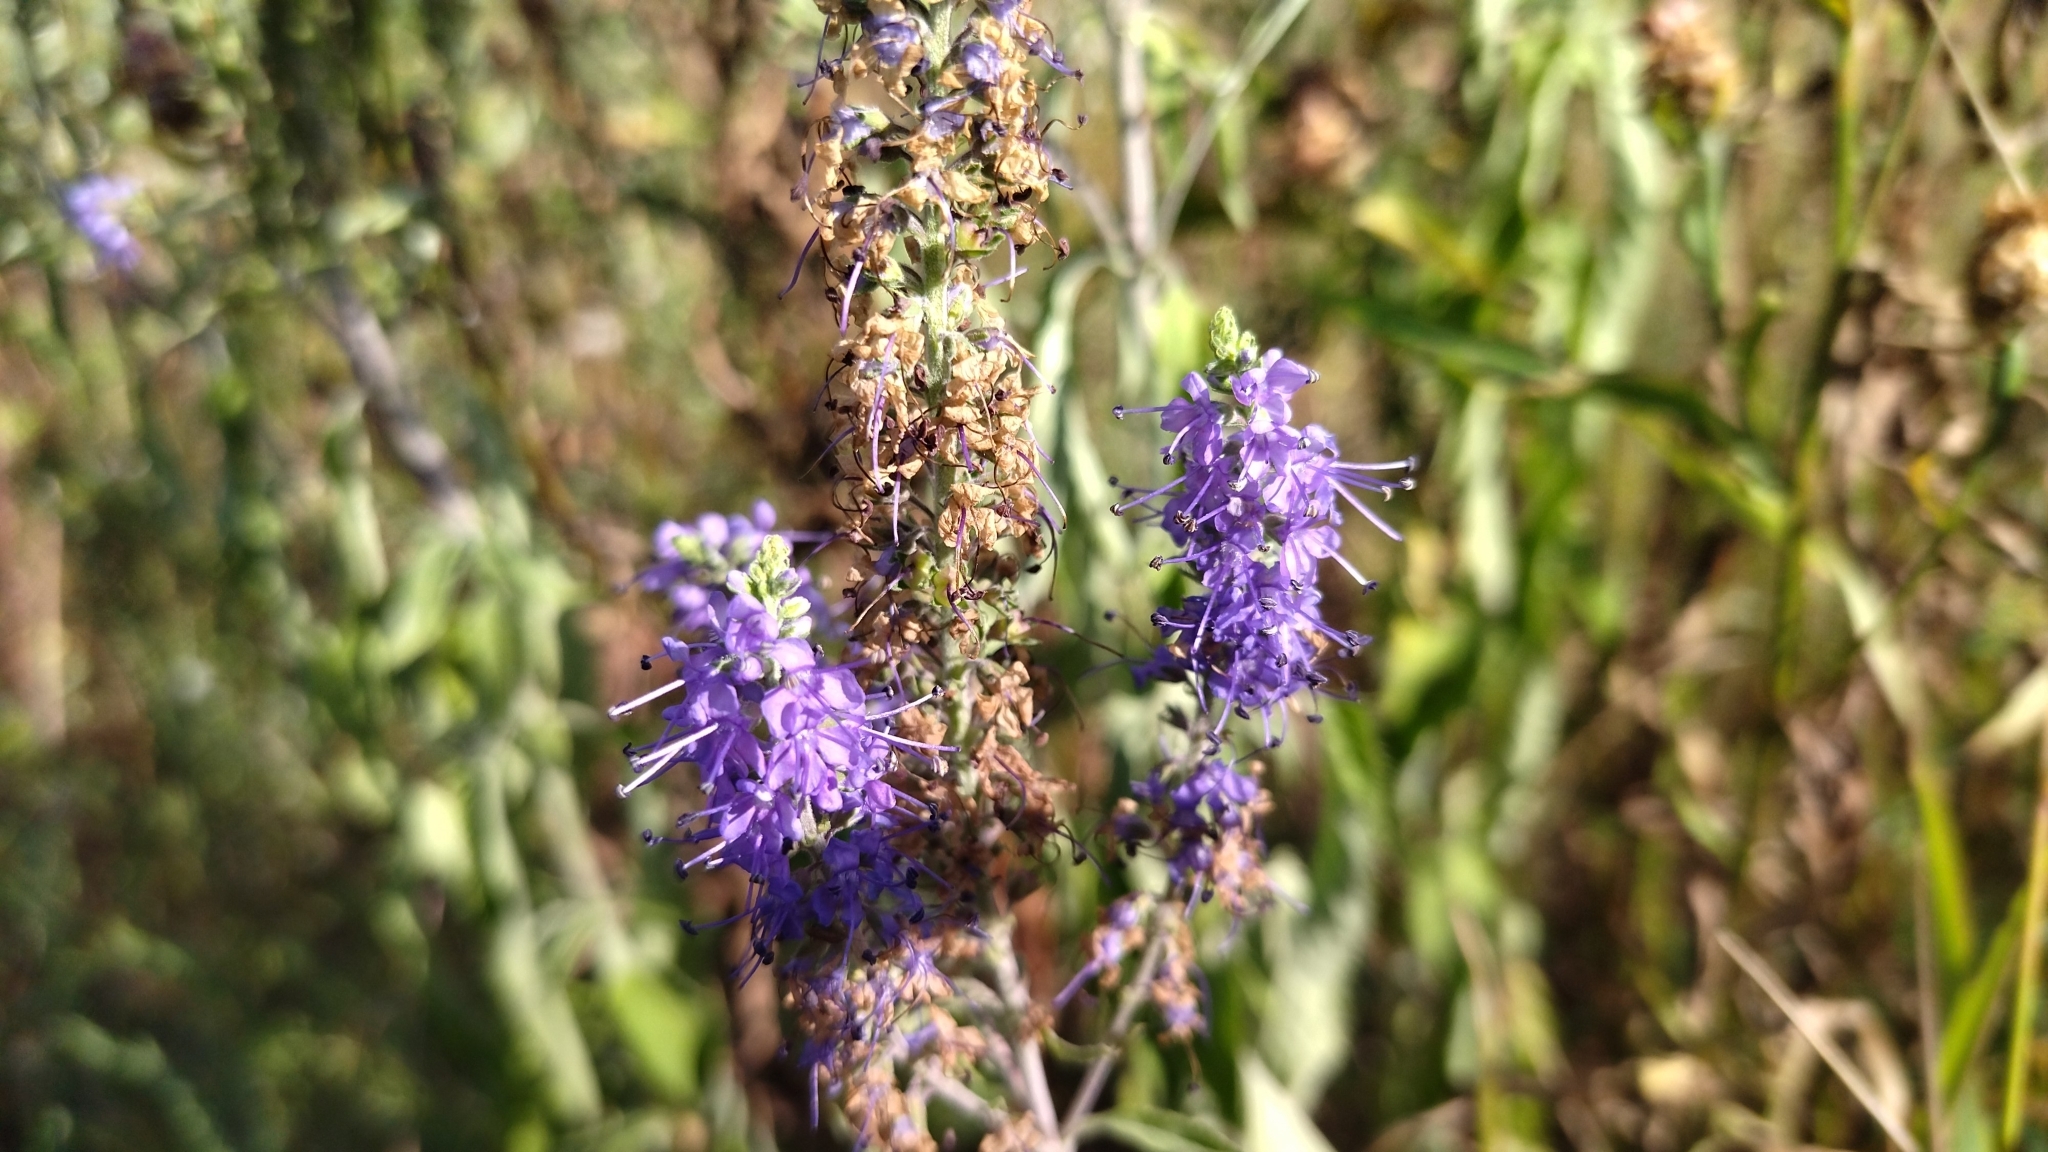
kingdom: Plantae
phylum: Tracheophyta
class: Magnoliopsida
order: Lamiales
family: Plantaginaceae
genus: Veronica
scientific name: Veronica longifolia
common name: Garden speedwell
